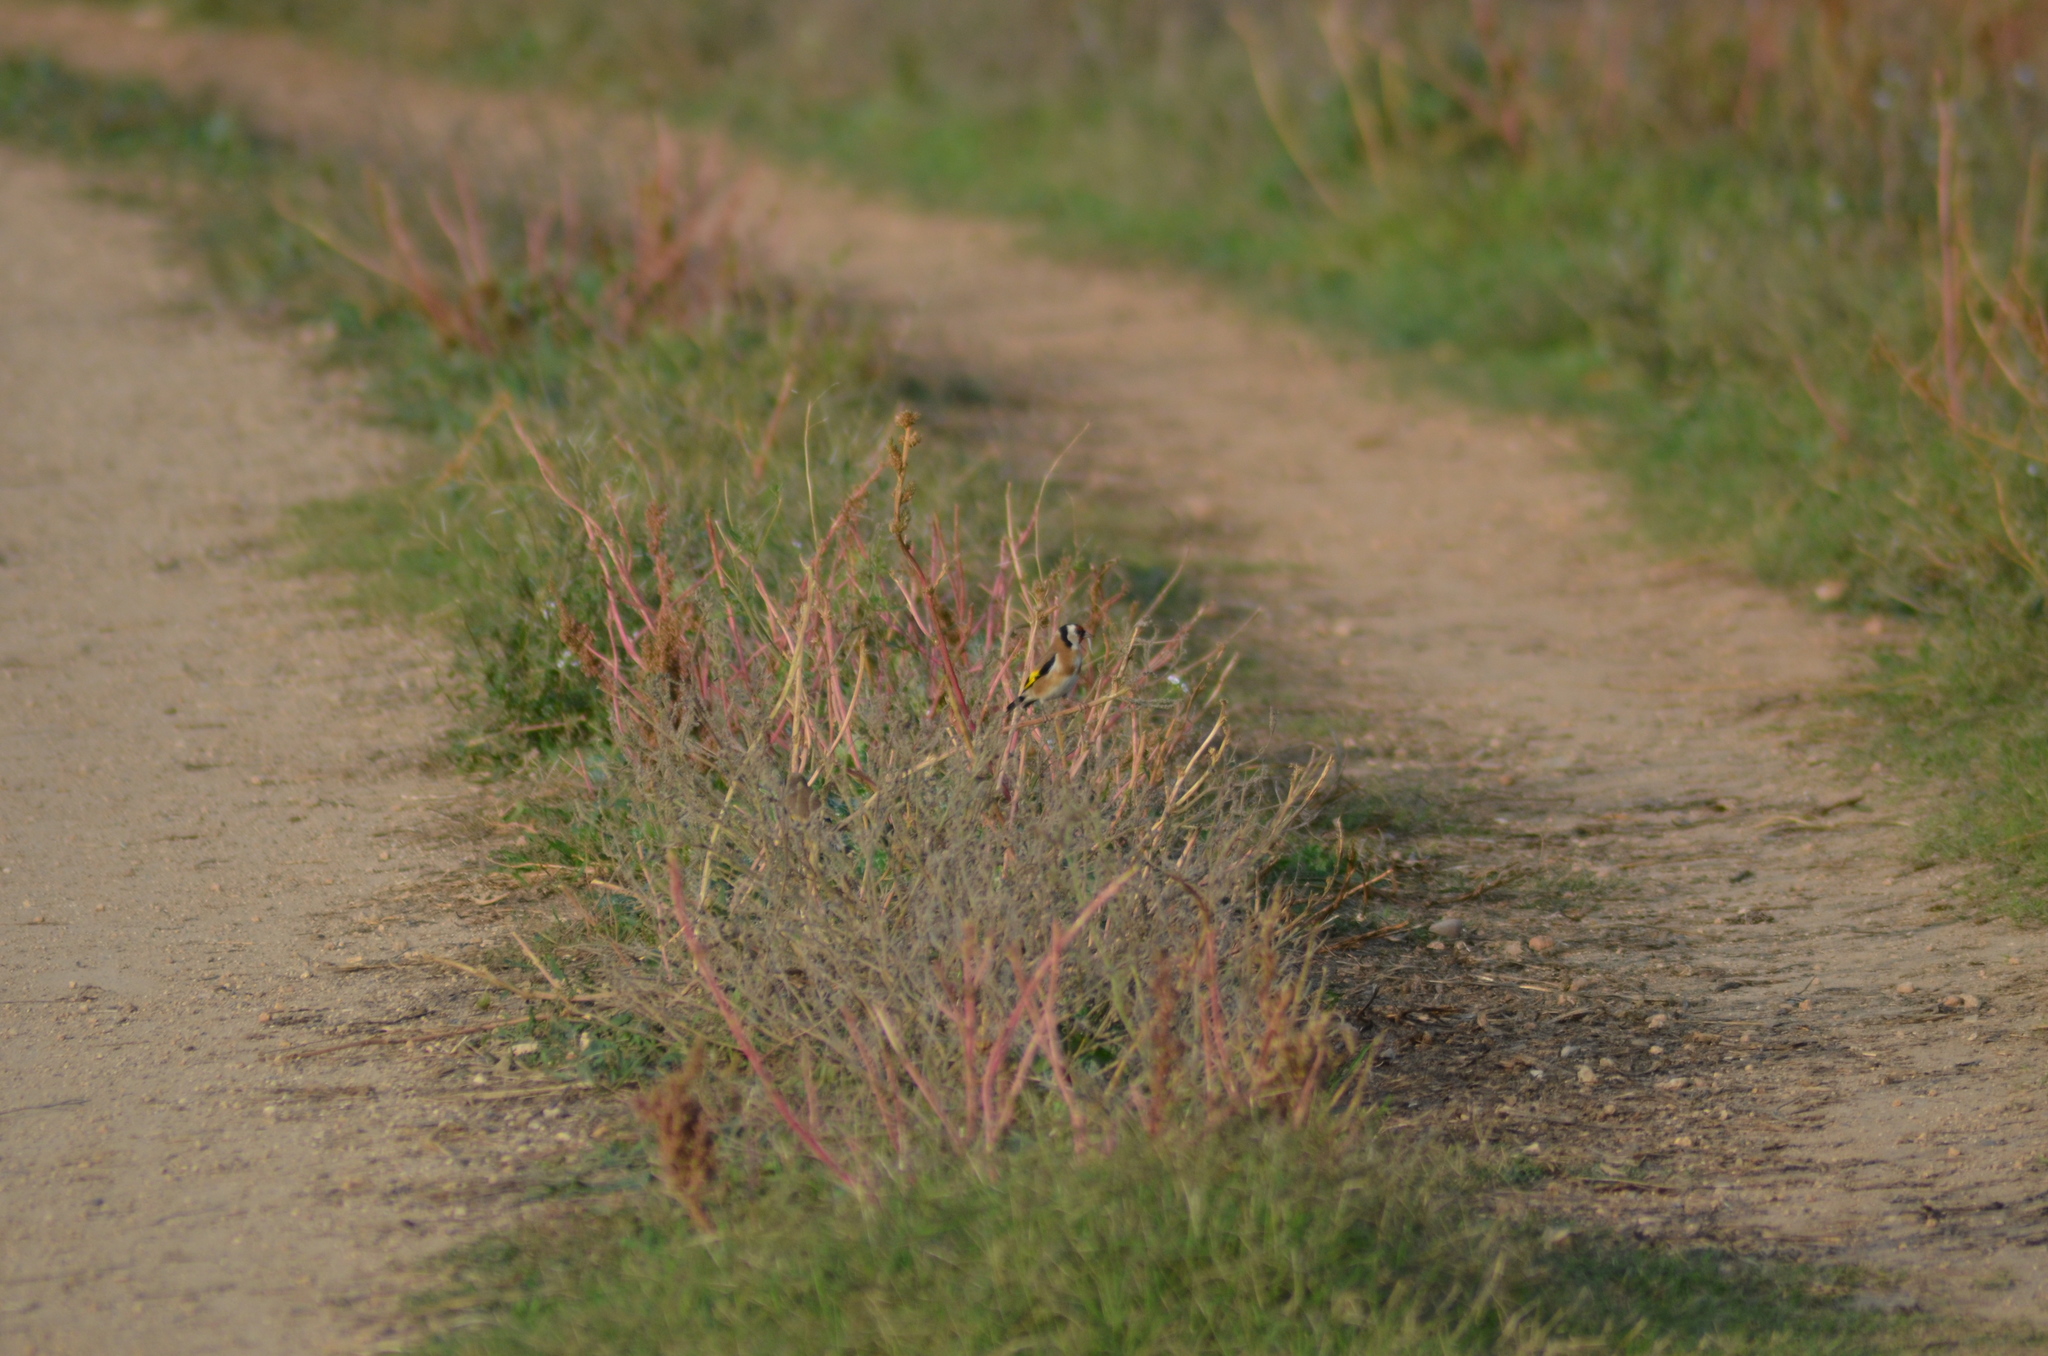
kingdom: Animalia
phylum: Chordata
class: Aves
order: Passeriformes
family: Fringillidae
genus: Carduelis
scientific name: Carduelis carduelis
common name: European goldfinch
